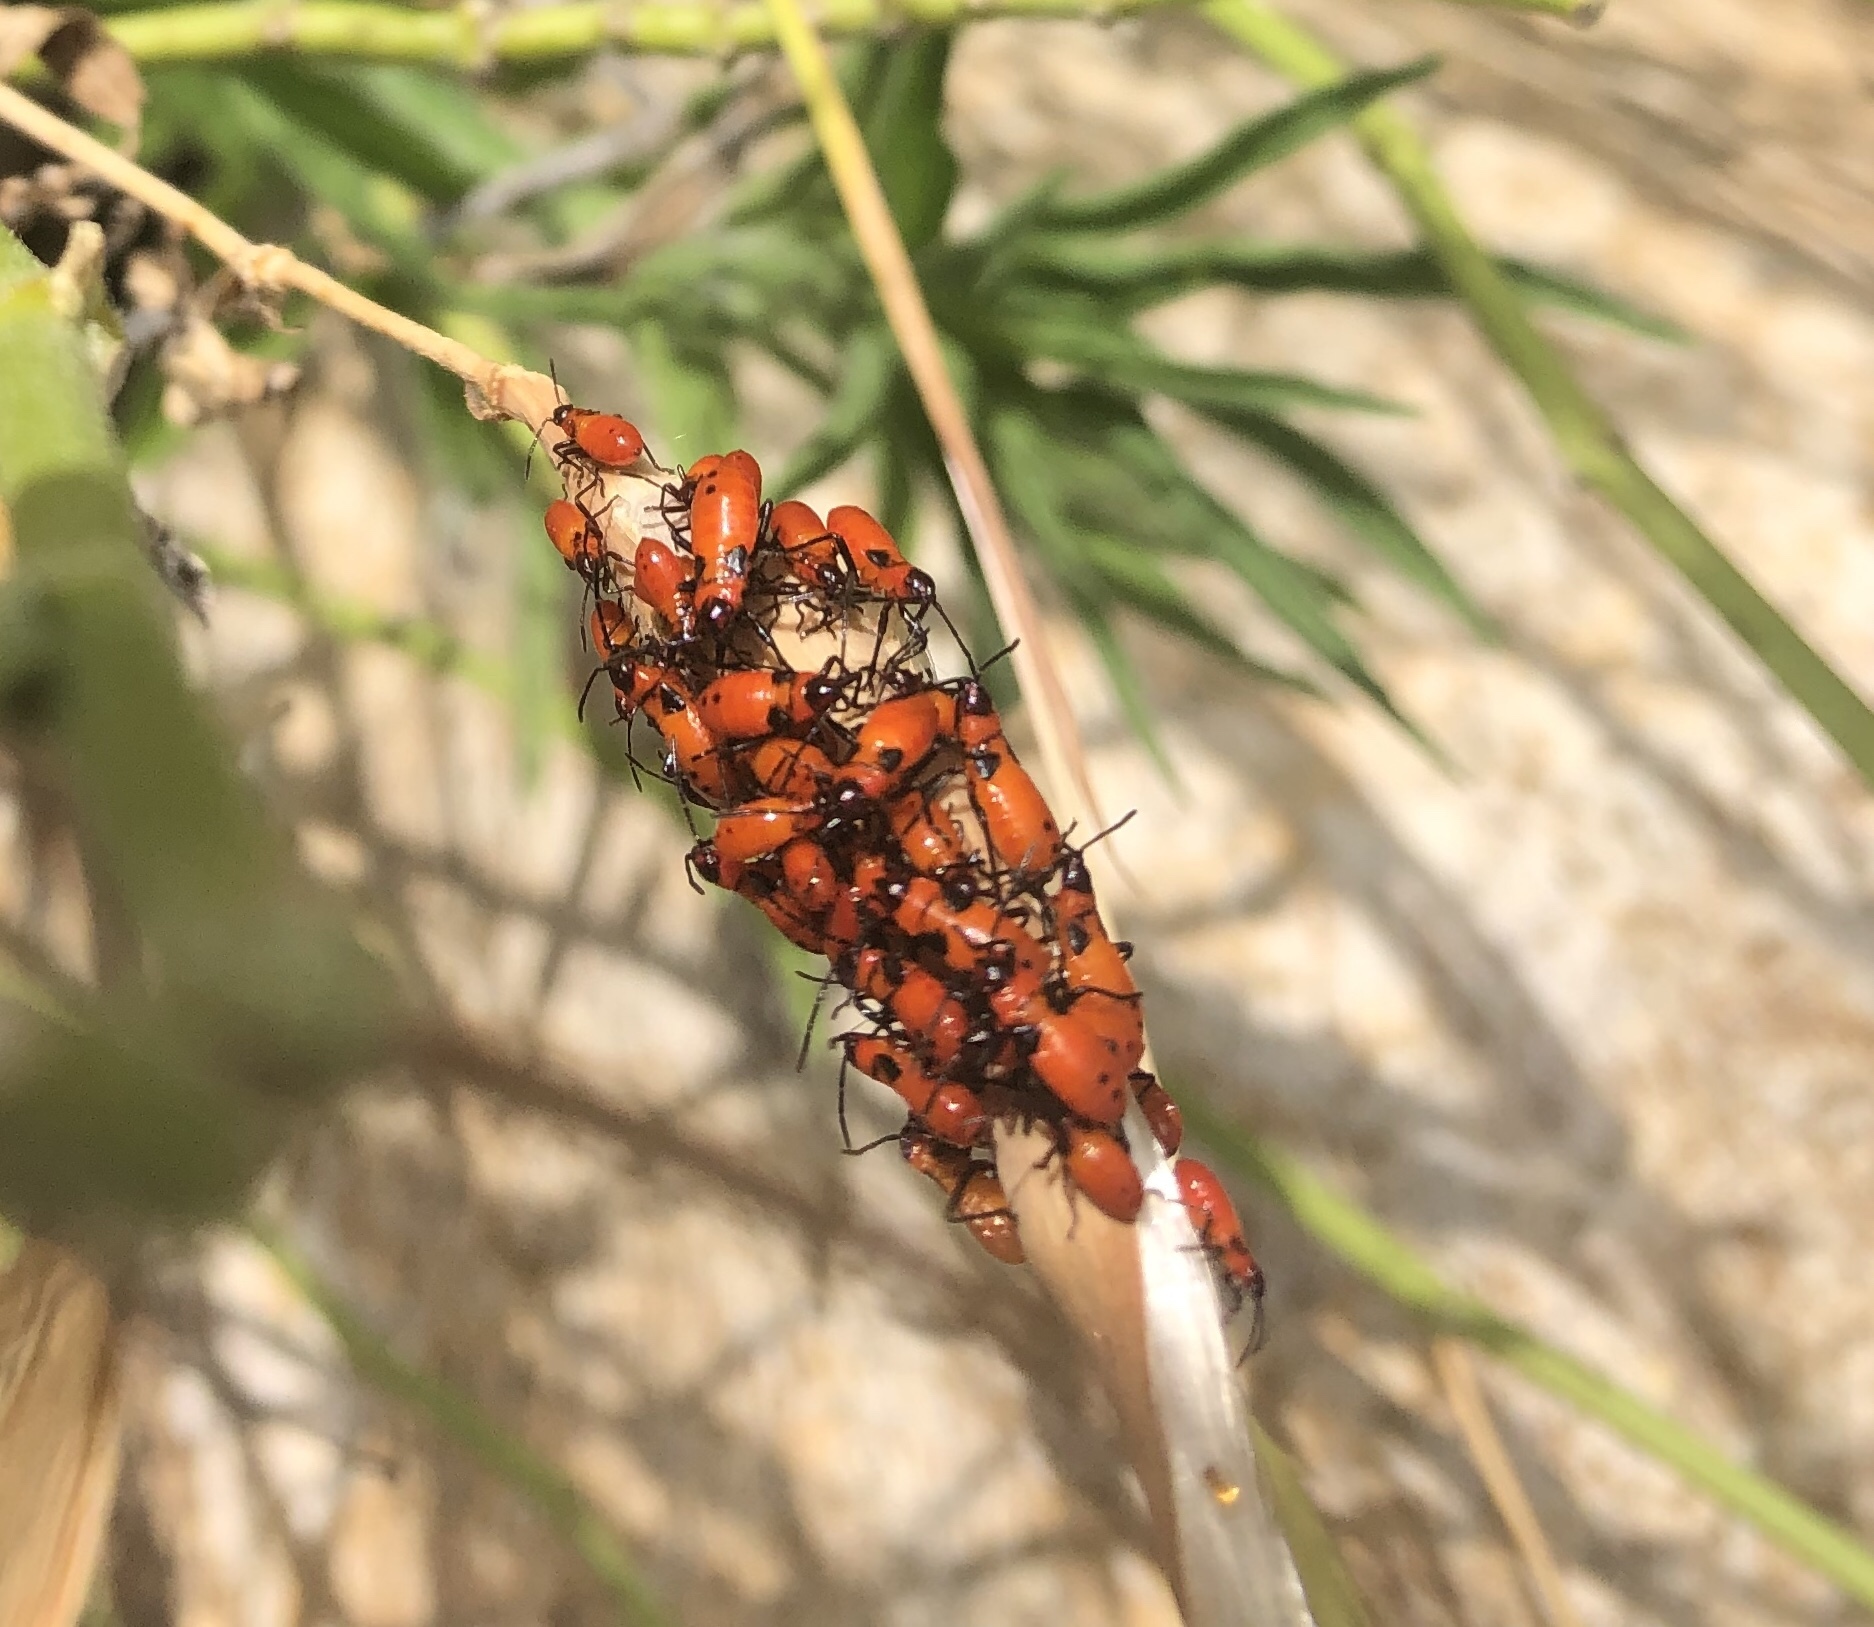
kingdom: Animalia
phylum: Arthropoda
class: Insecta
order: Hemiptera
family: Lygaeidae
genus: Oncopeltus
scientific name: Oncopeltus fasciatus
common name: Large milkweed bug
